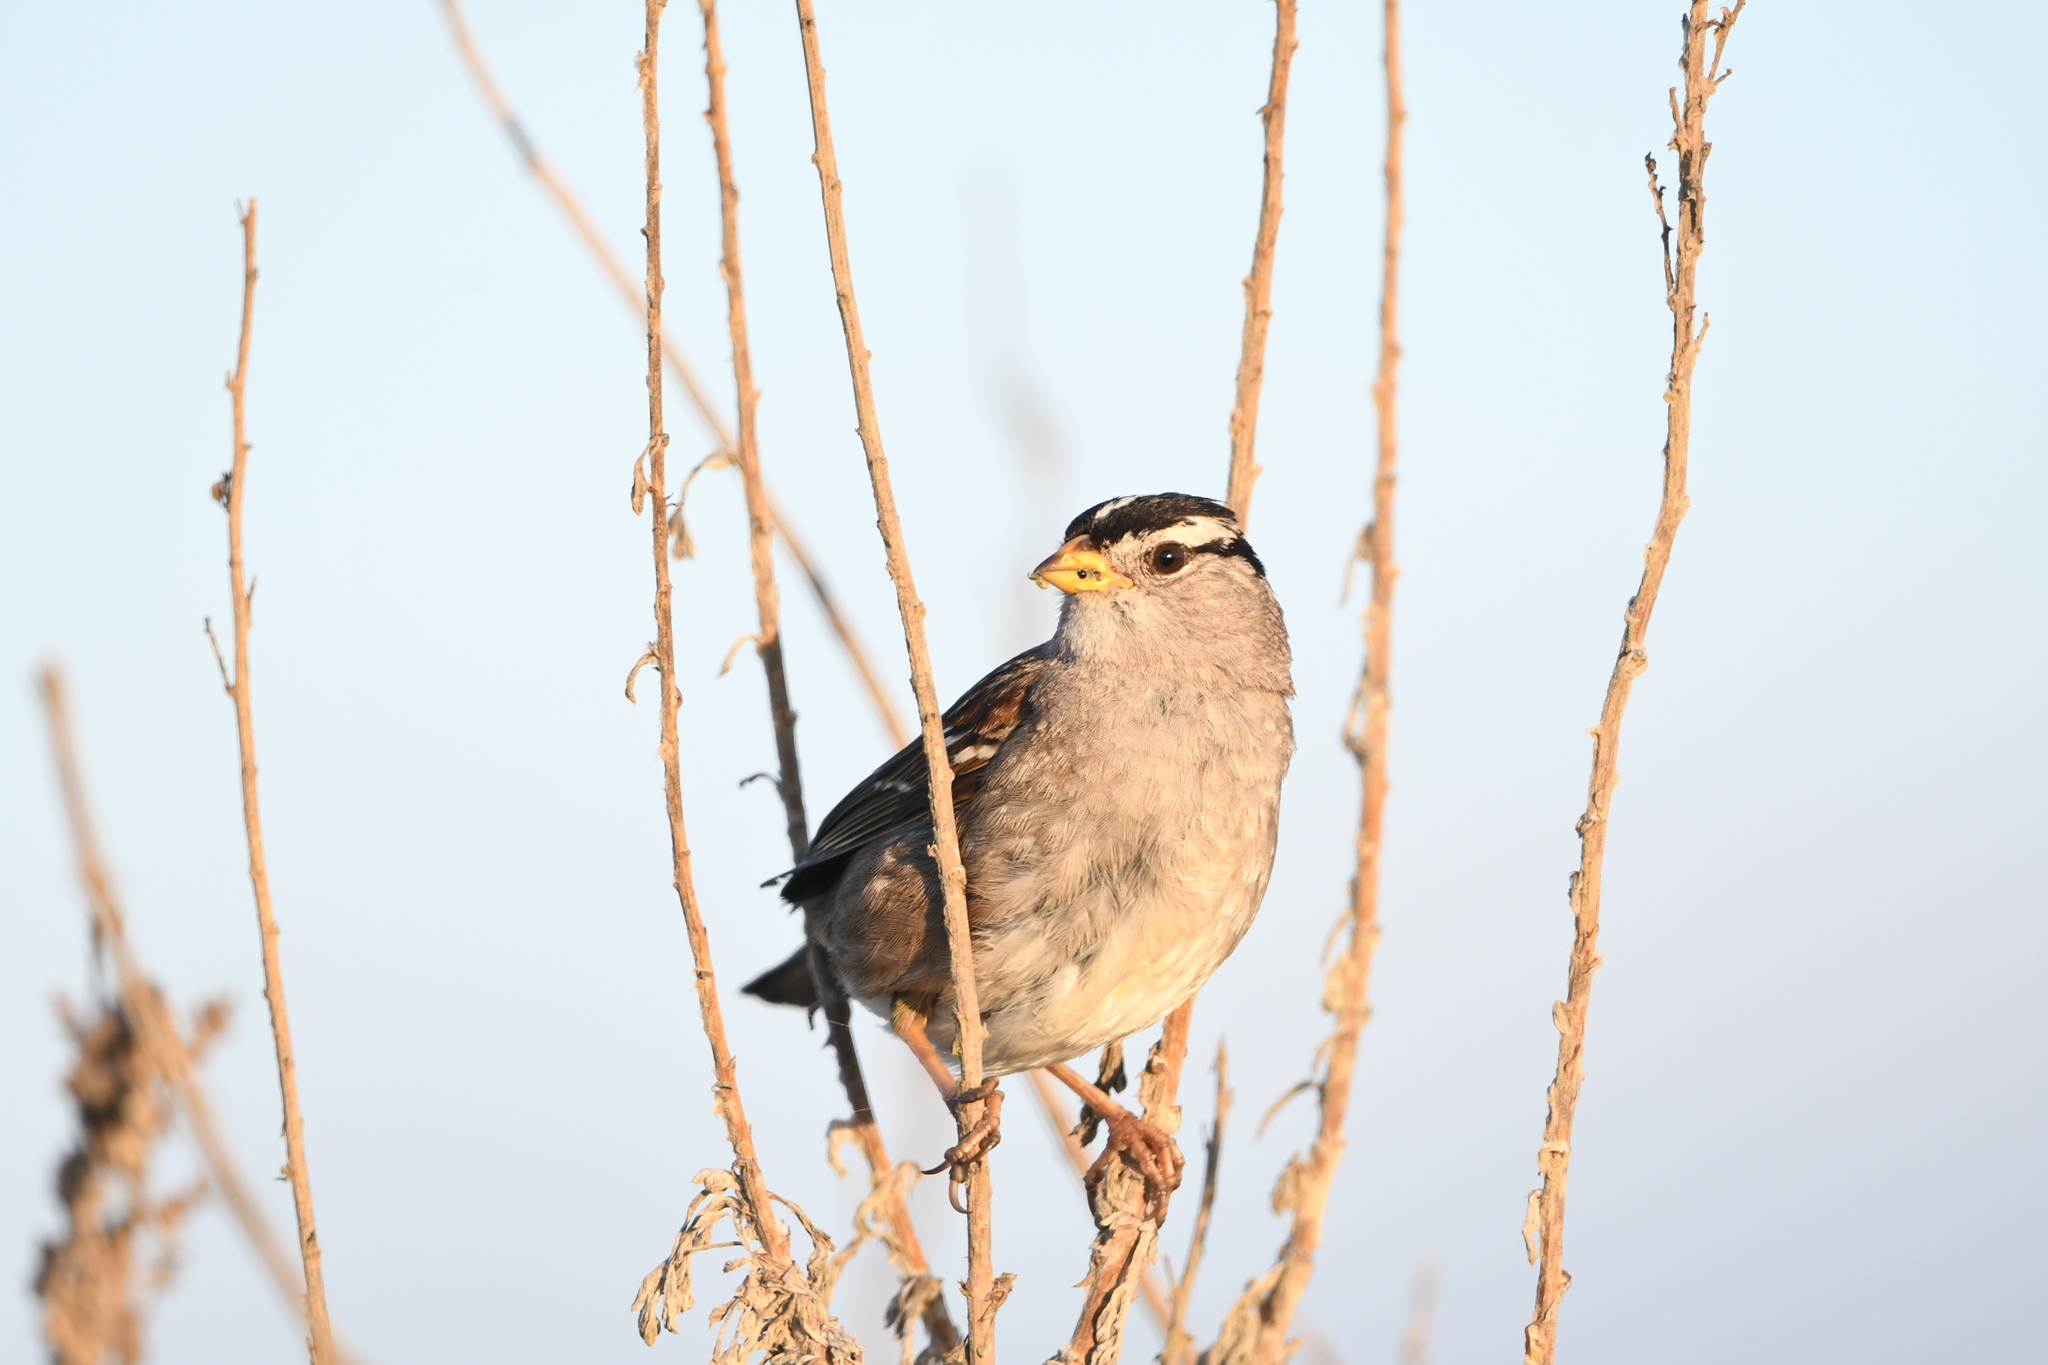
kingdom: Animalia
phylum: Chordata
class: Aves
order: Passeriformes
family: Passerellidae
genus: Zonotrichia
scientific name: Zonotrichia leucophrys
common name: White-crowned sparrow
